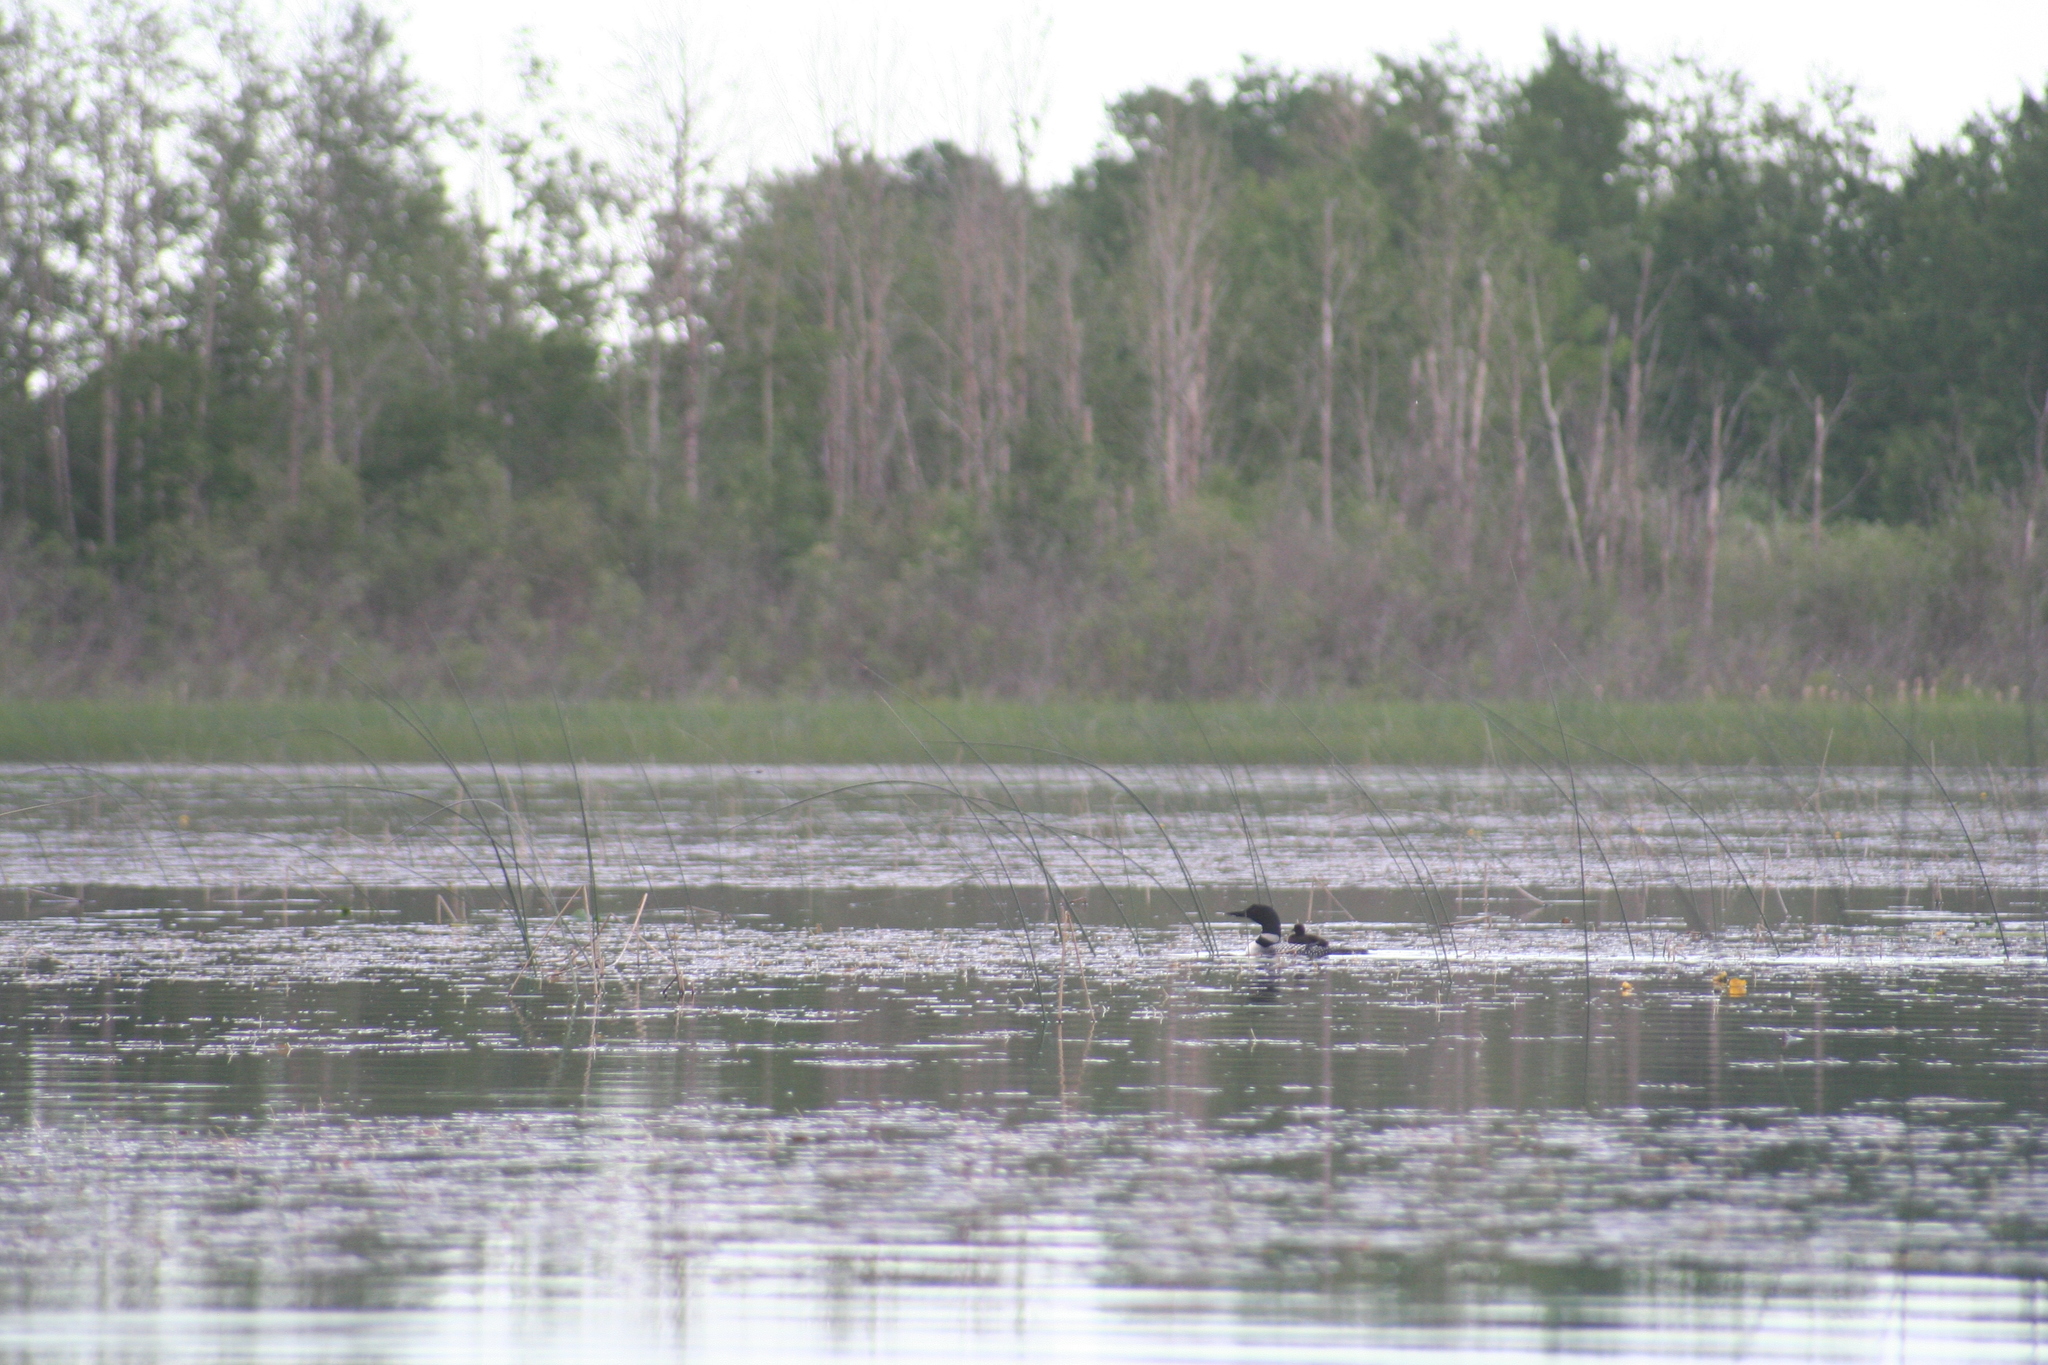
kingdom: Animalia
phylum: Chordata
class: Aves
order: Gaviiformes
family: Gaviidae
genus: Gavia
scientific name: Gavia immer
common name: Common loon
